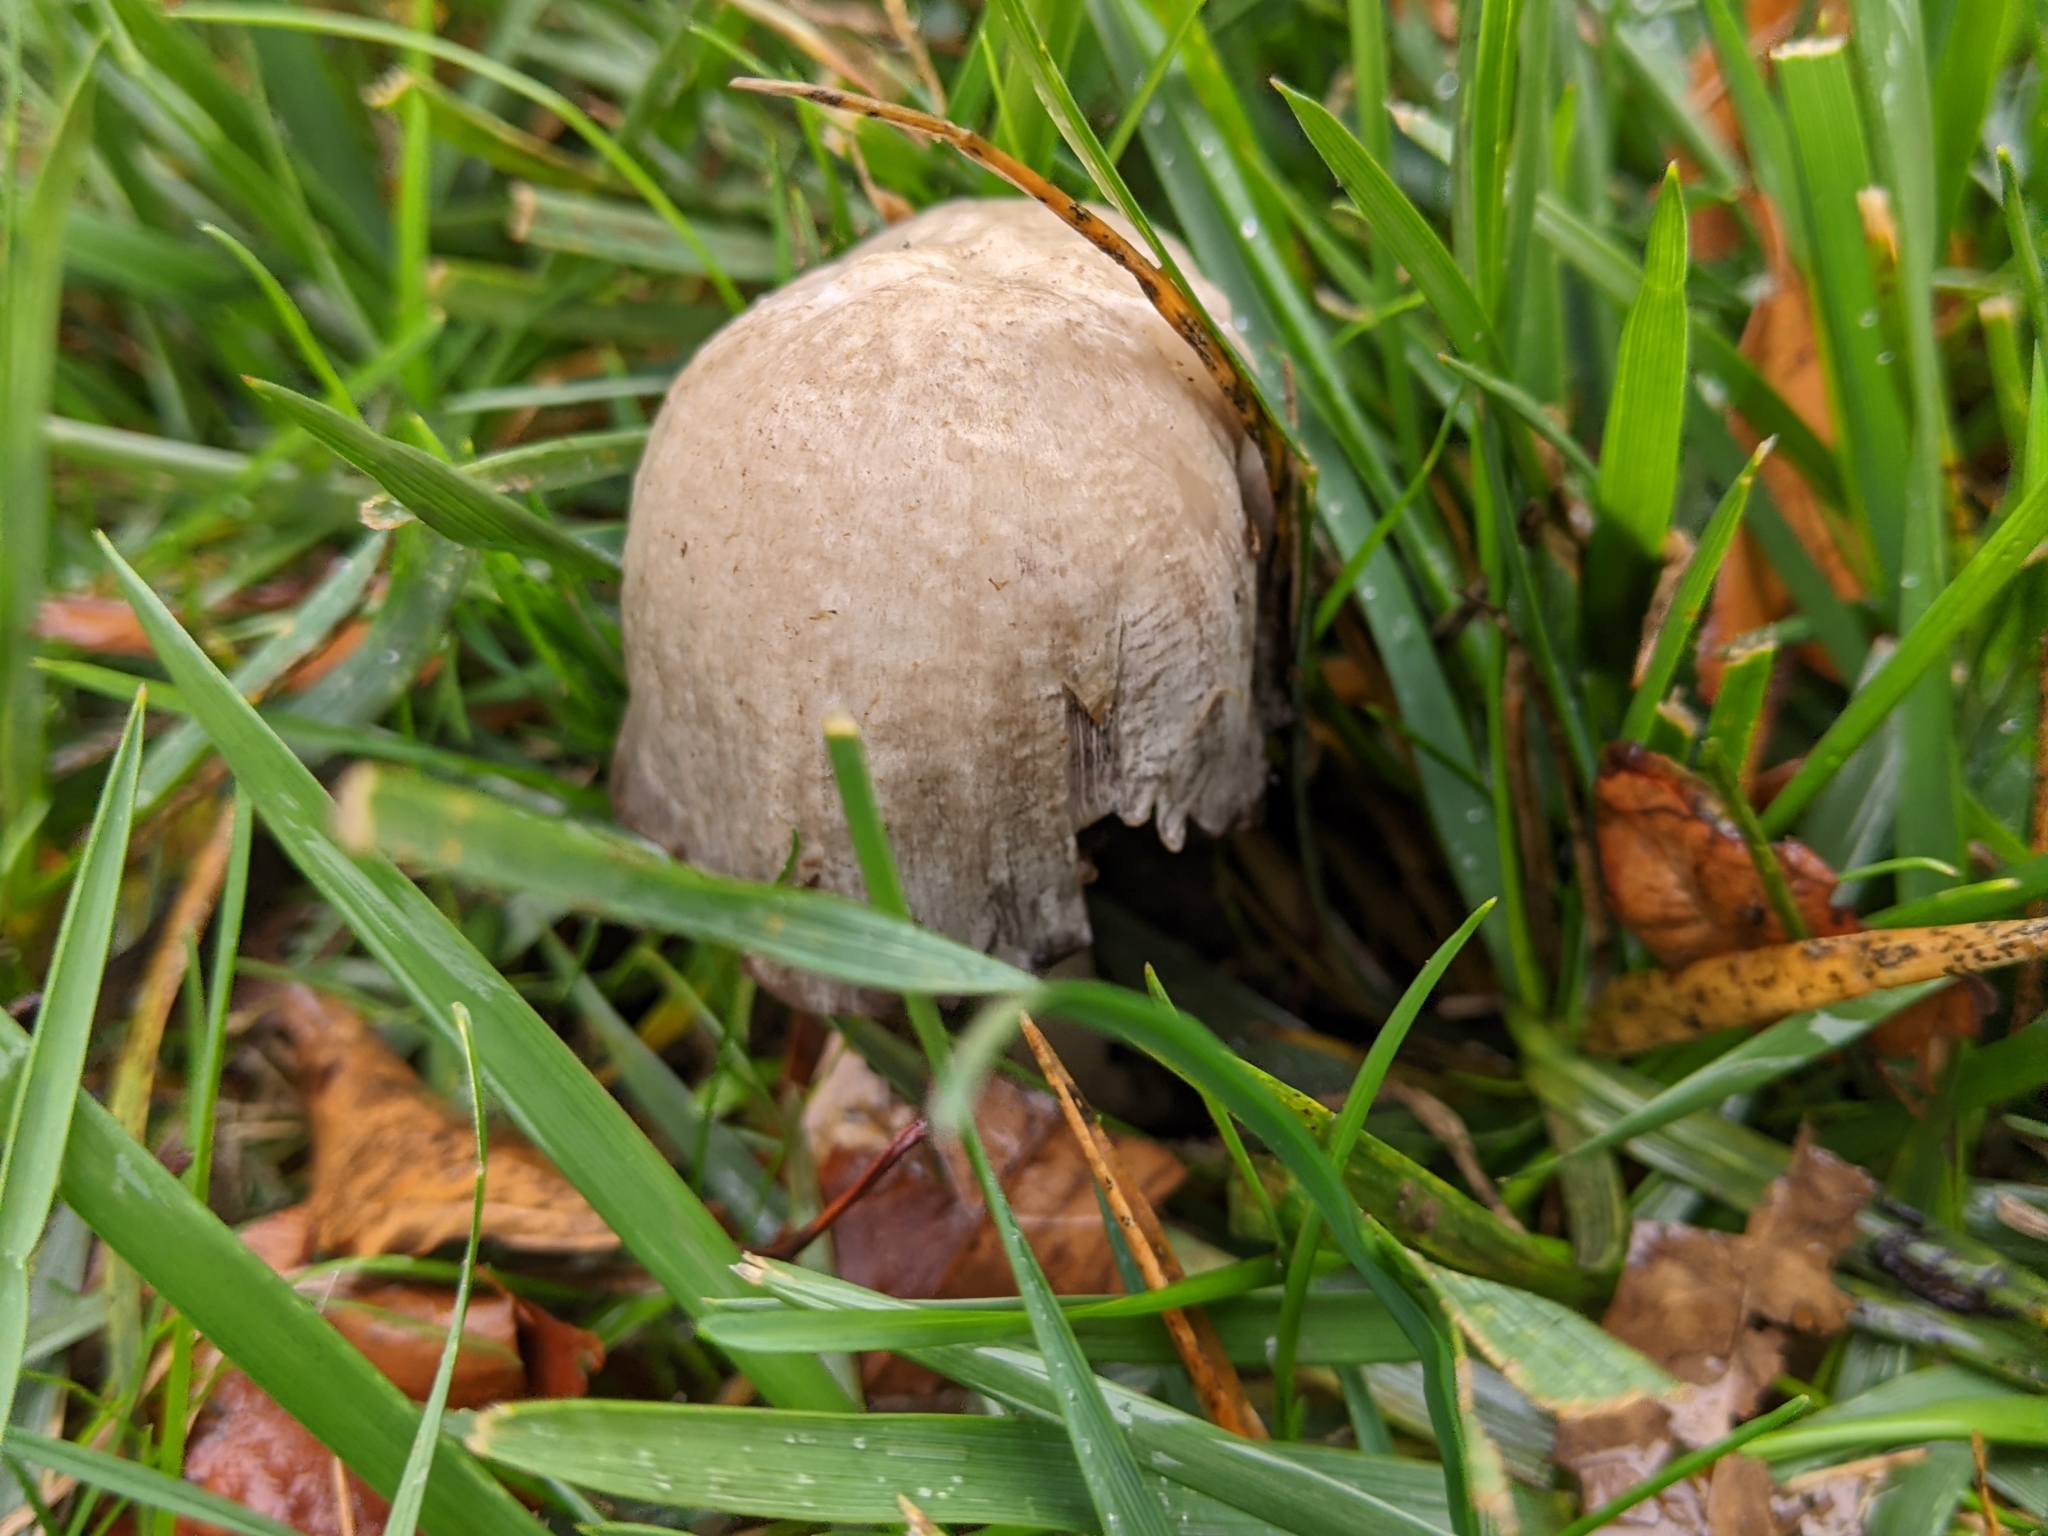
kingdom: Fungi
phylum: Basidiomycota
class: Agaricomycetes
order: Agaricales
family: Psathyrellaceae
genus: Coprinopsis
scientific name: Coprinopsis atramentaria
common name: Common ink-cap
